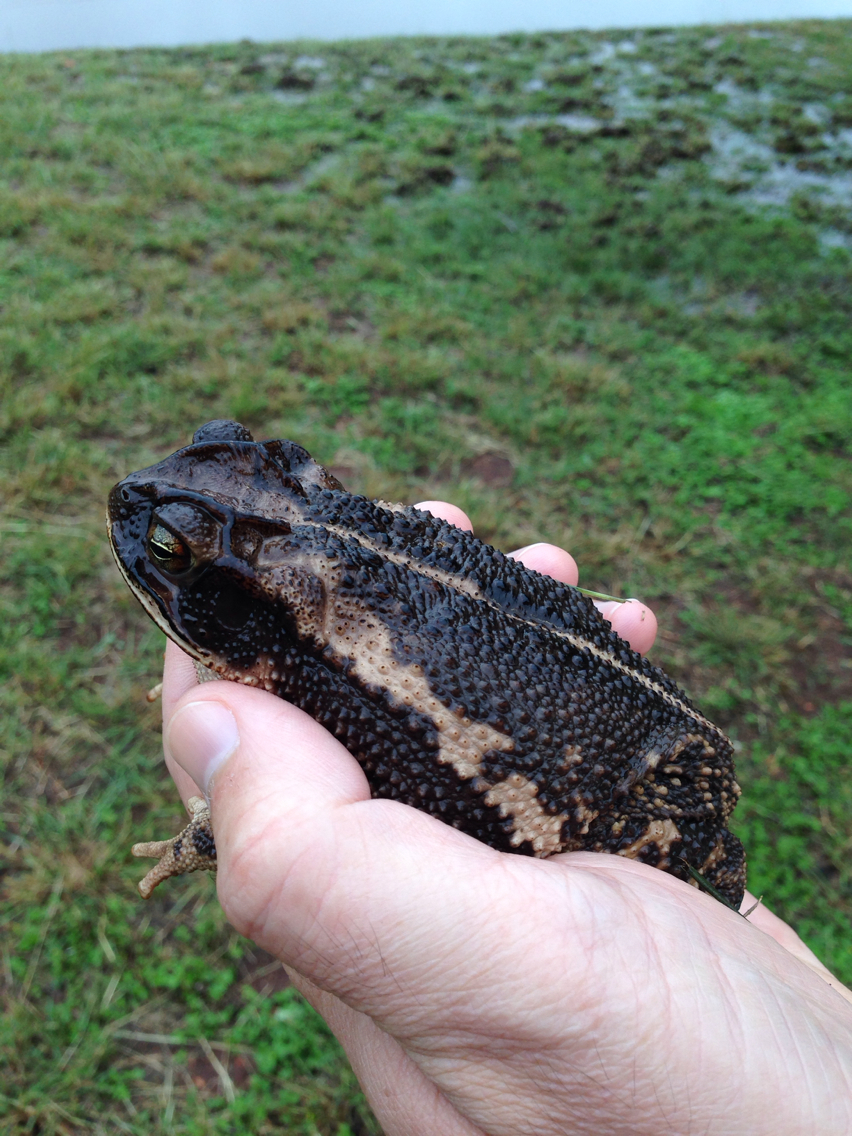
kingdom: Animalia
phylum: Chordata
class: Amphibia
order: Anura
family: Bufonidae
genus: Incilius
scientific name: Incilius nebulifer
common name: Gulf coast toad
